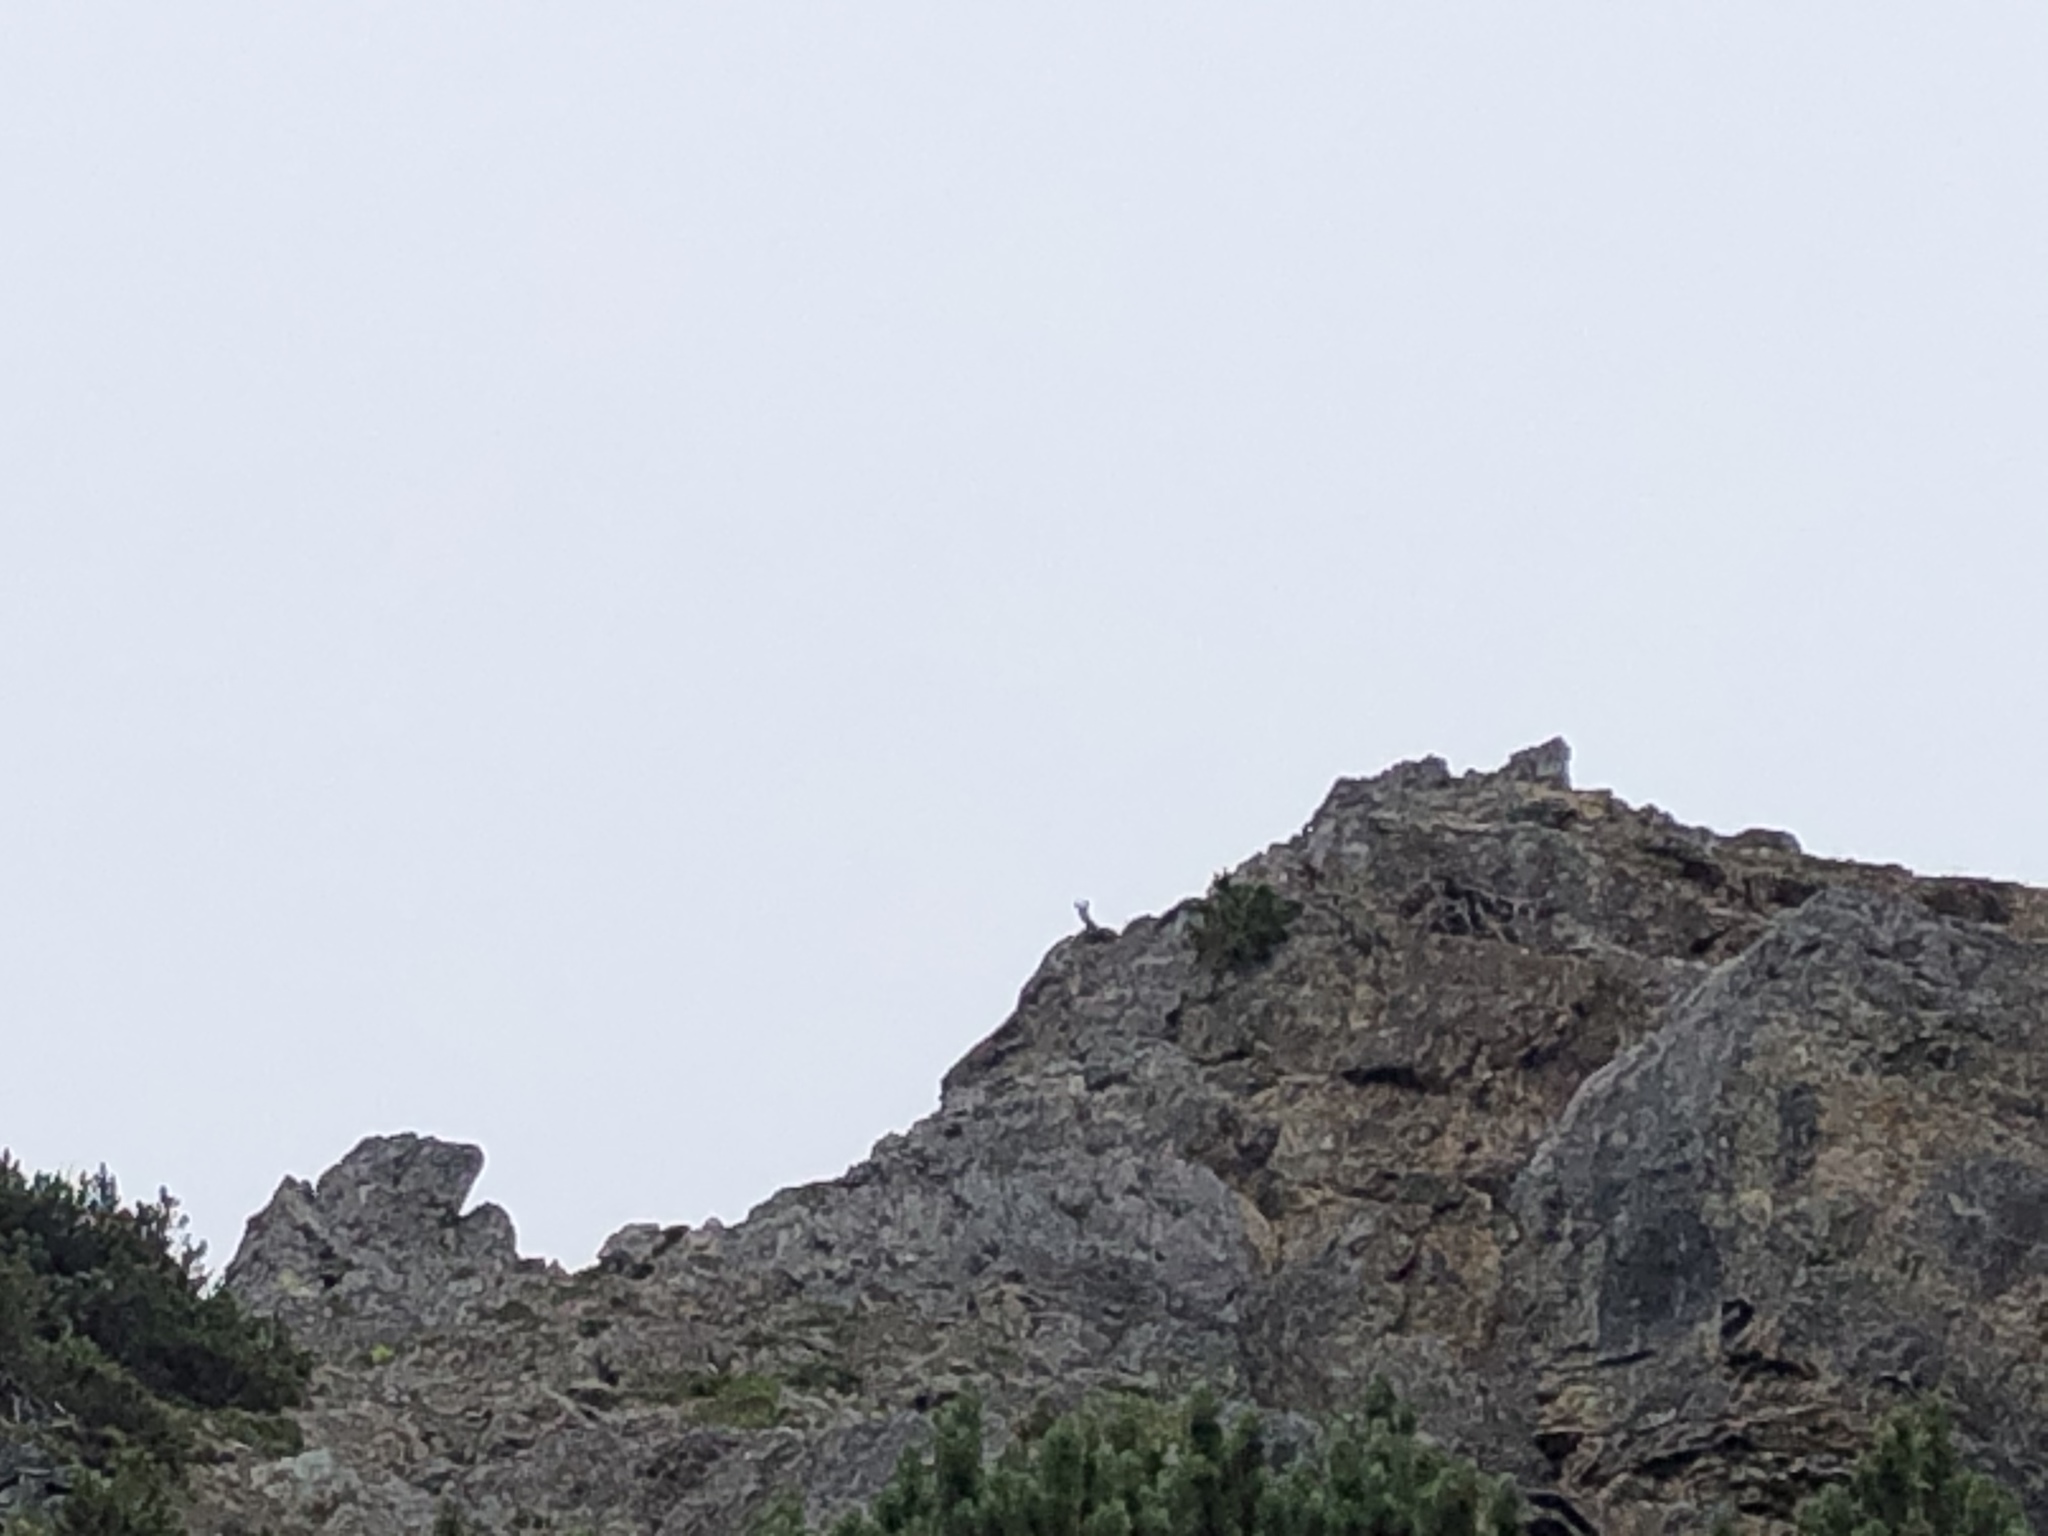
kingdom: Animalia
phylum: Chordata
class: Mammalia
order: Artiodactyla
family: Bovidae
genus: Rupicapra
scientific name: Rupicapra rupicapra
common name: Chamois
